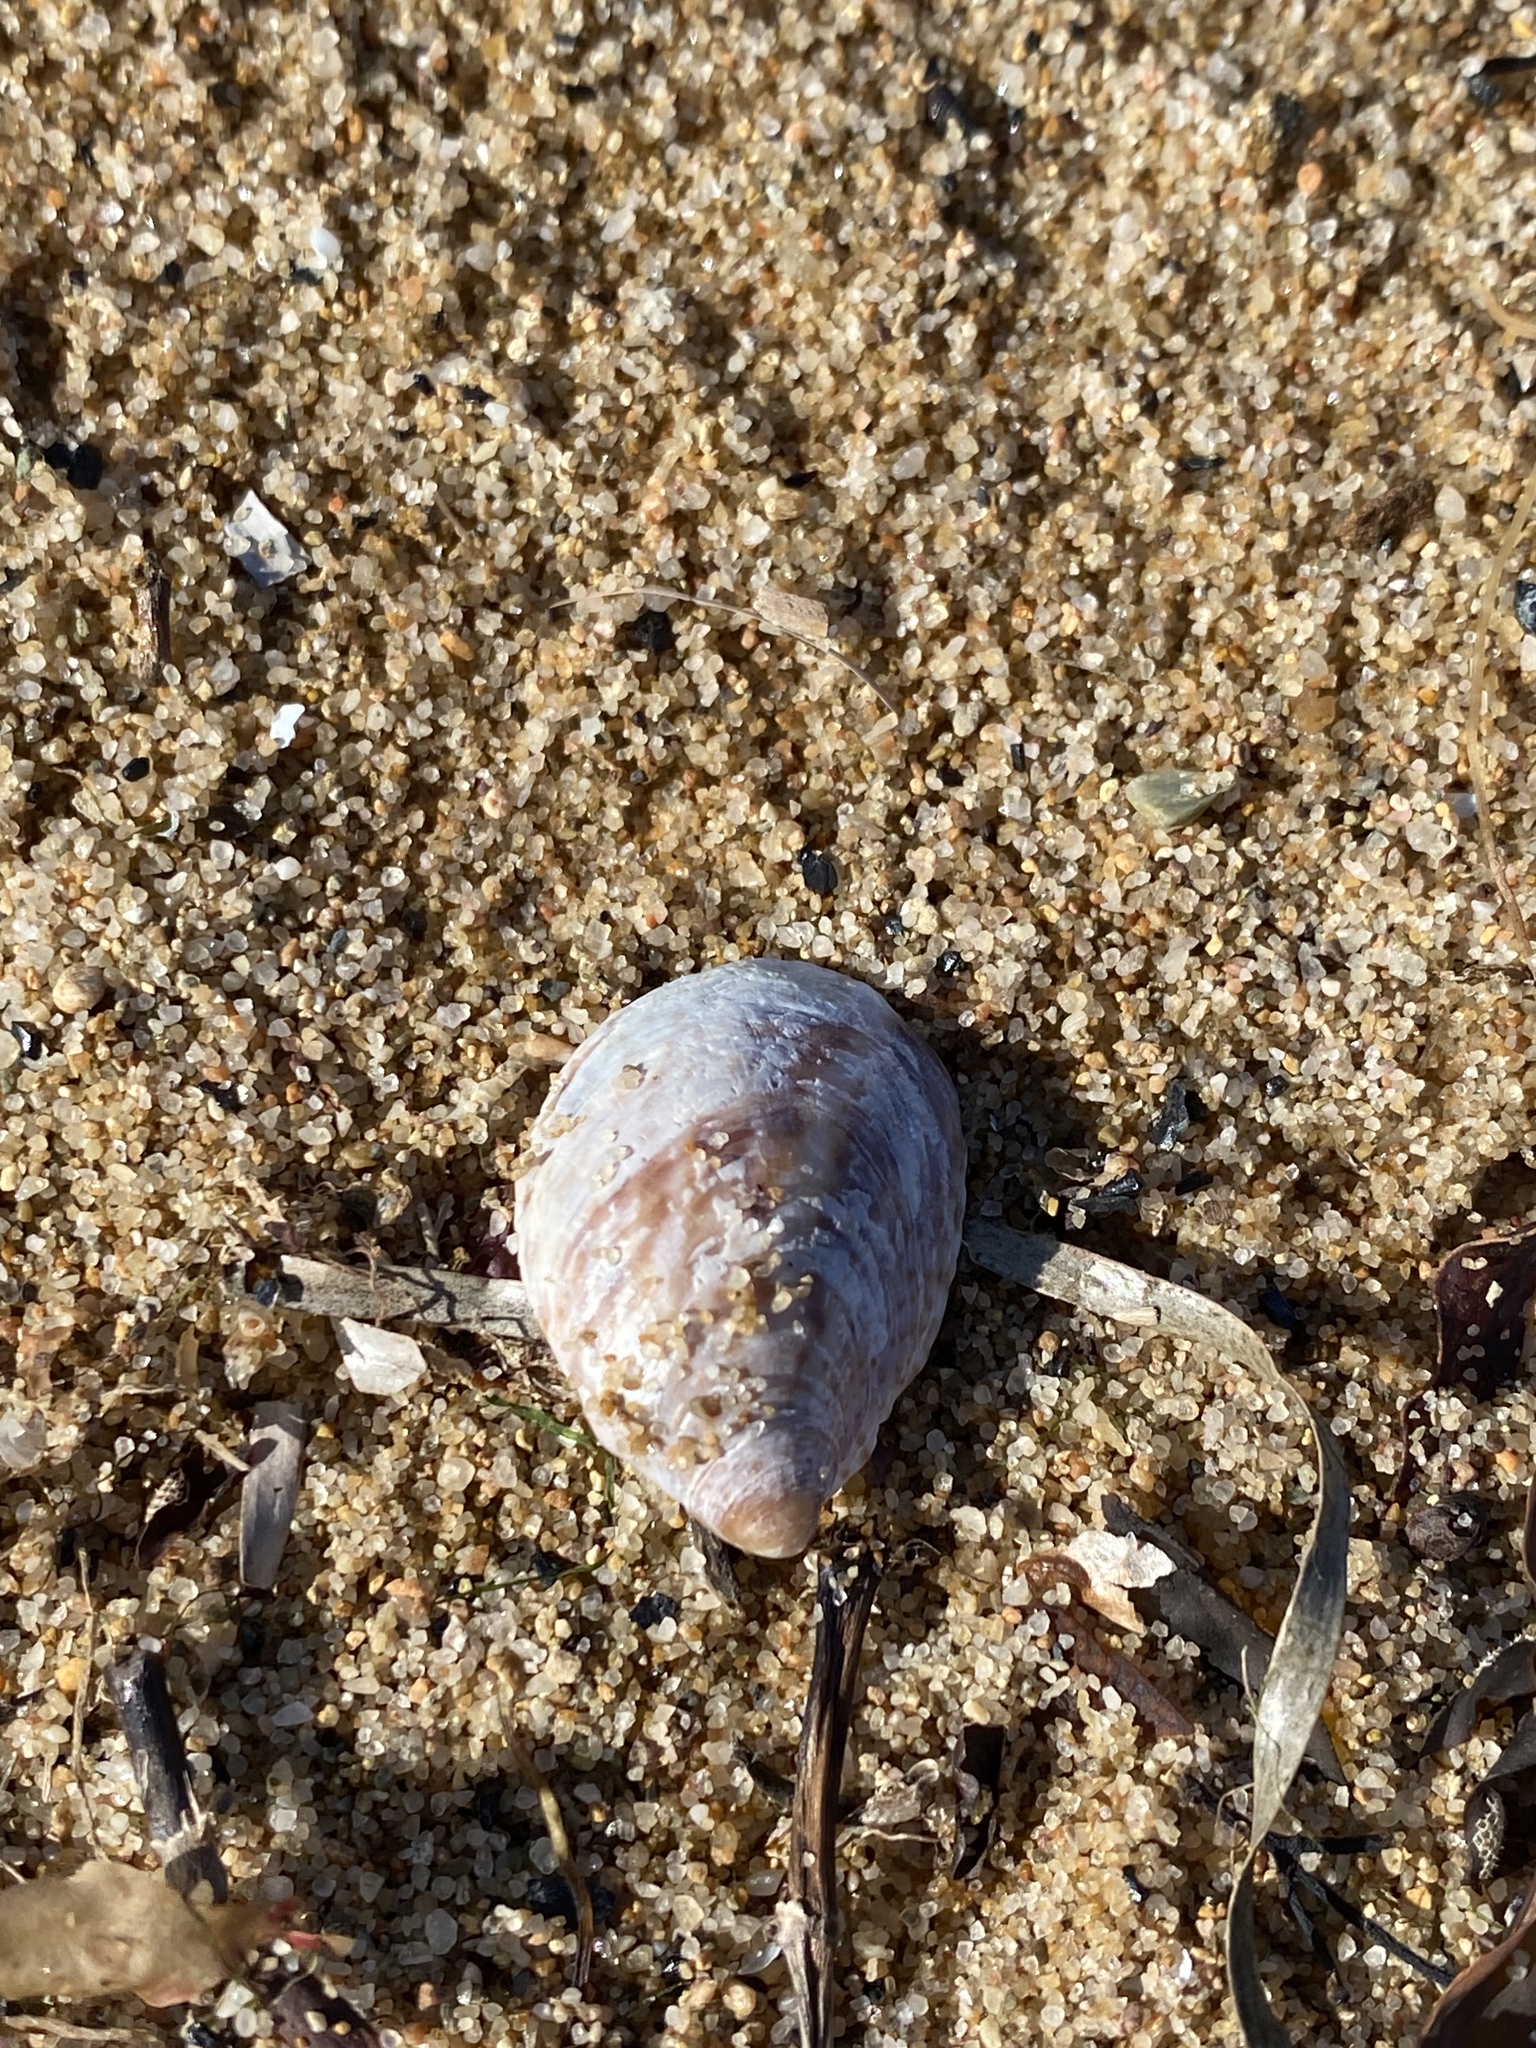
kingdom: Animalia
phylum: Mollusca
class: Gastropoda
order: Littorinimorpha
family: Calyptraeidae
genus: Crepidula
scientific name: Crepidula fornicata
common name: Slipper limpet
